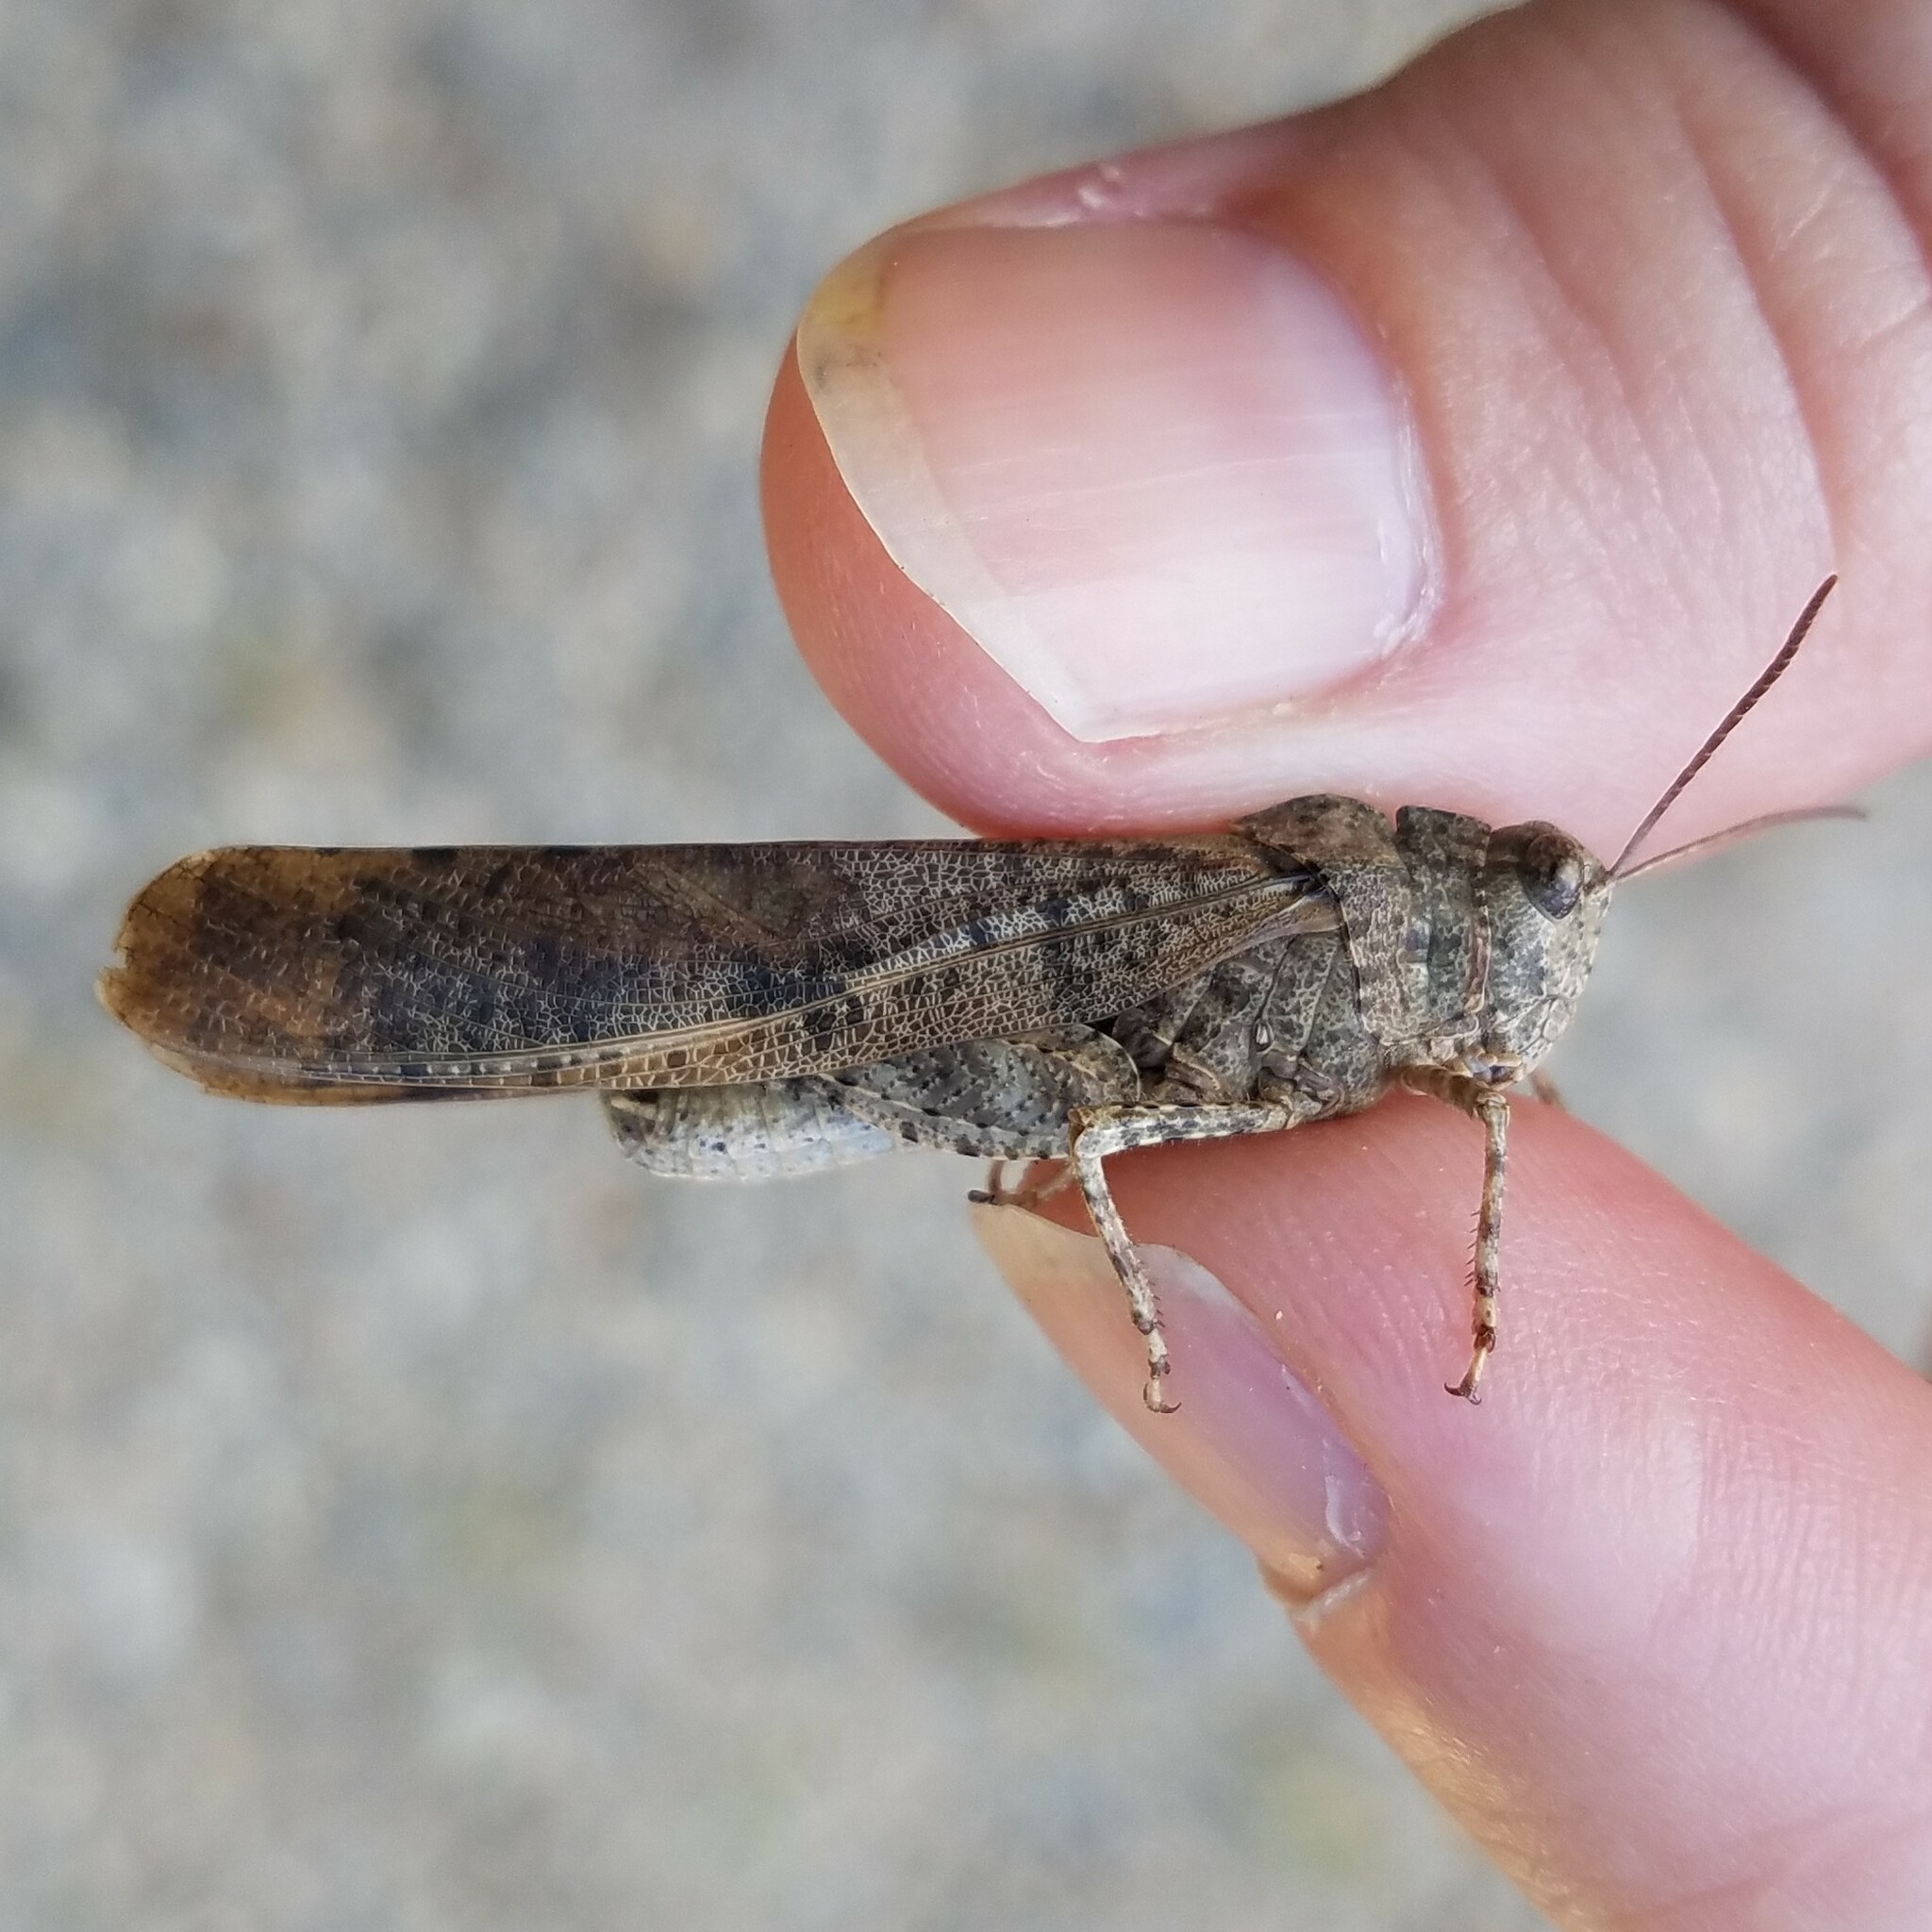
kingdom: Animalia
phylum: Arthropoda
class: Insecta
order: Orthoptera
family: Acrididae
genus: Dissosteira
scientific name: Dissosteira carolina
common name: Carolina grasshopper
